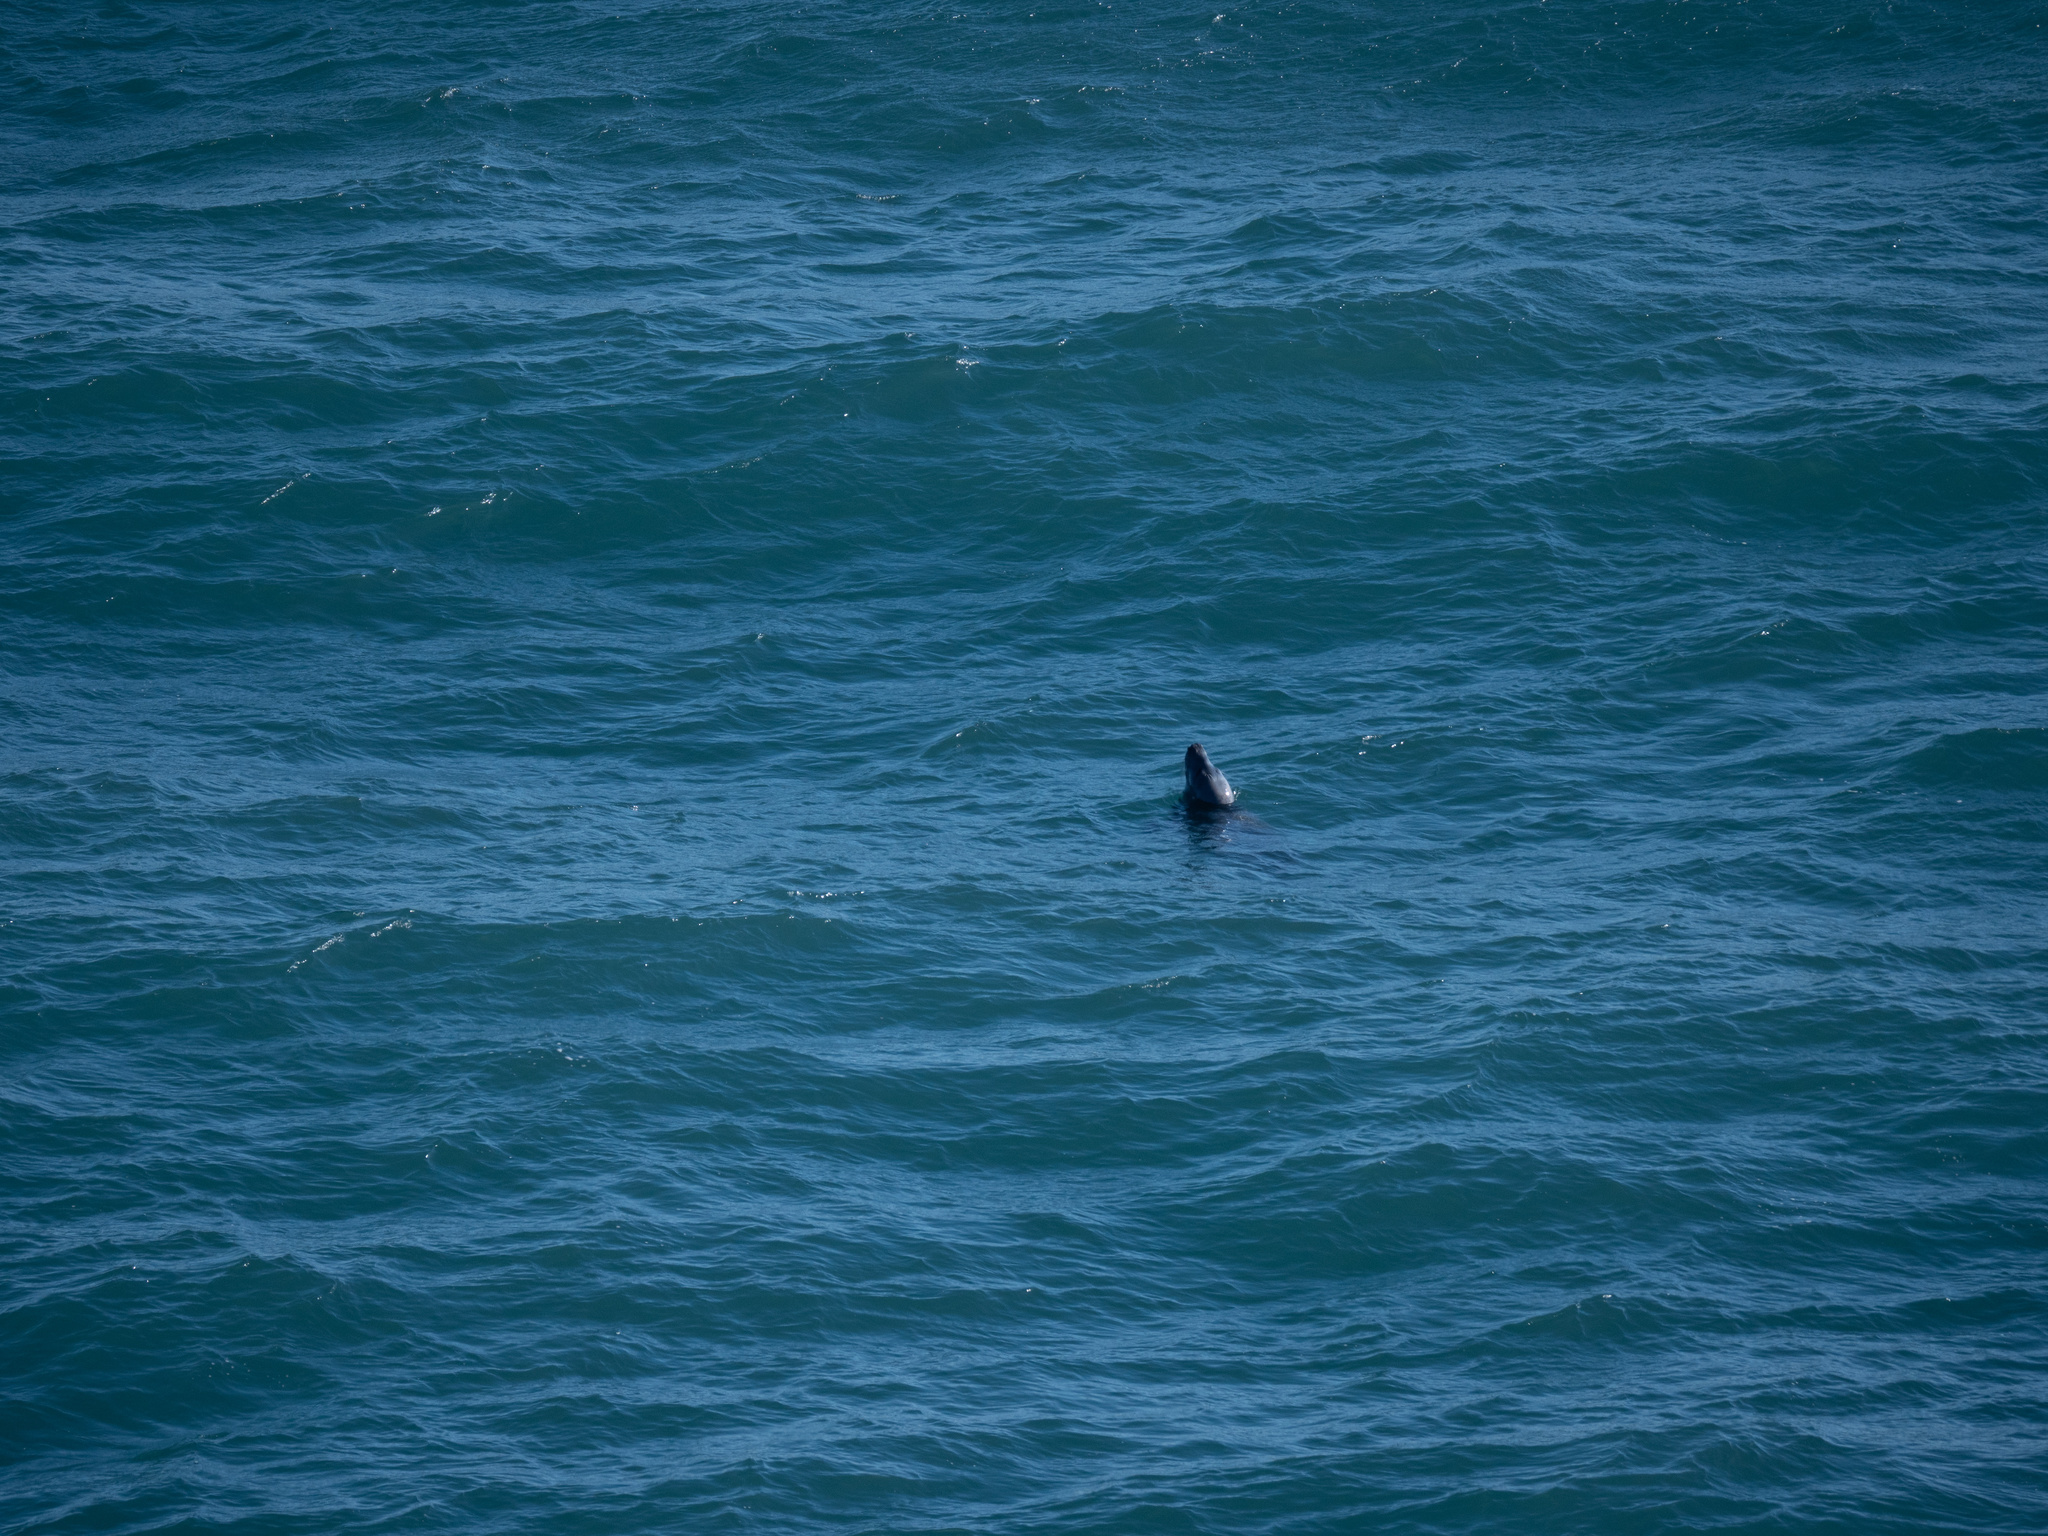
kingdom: Animalia
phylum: Chordata
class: Mammalia
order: Carnivora
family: Phocidae
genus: Halichoerus
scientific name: Halichoerus grypus
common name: Grey seal
